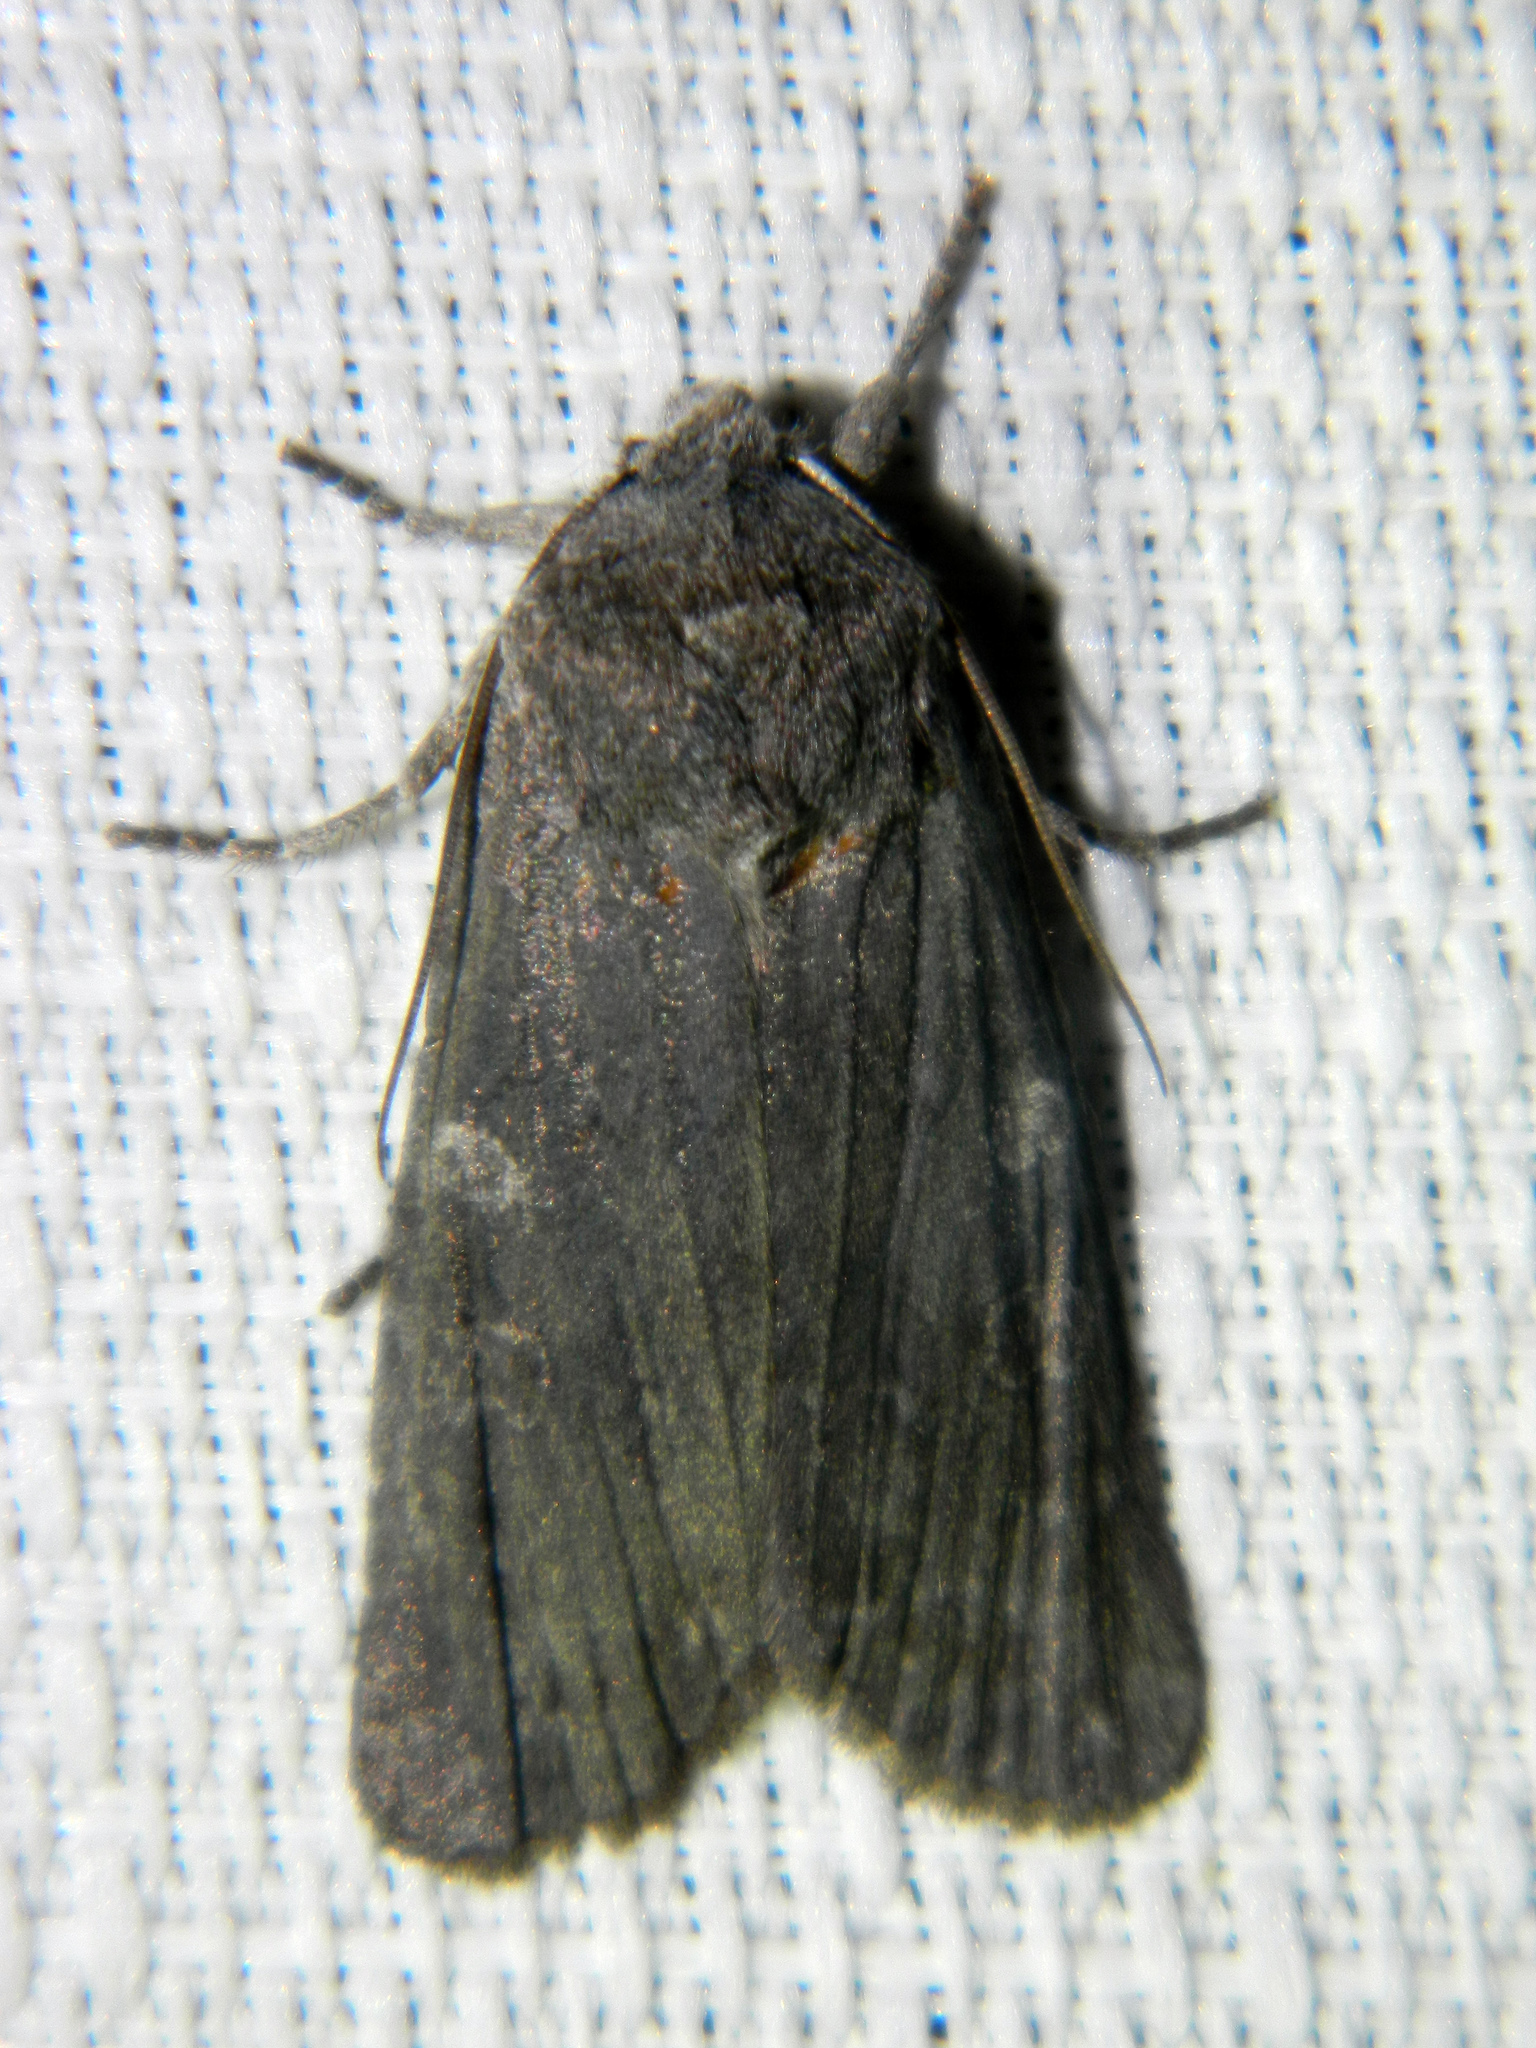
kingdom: Animalia
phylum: Arthropoda
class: Insecta
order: Lepidoptera
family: Noctuidae
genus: Lithophane
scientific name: Lithophane unimoda
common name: Dowdy pinion
